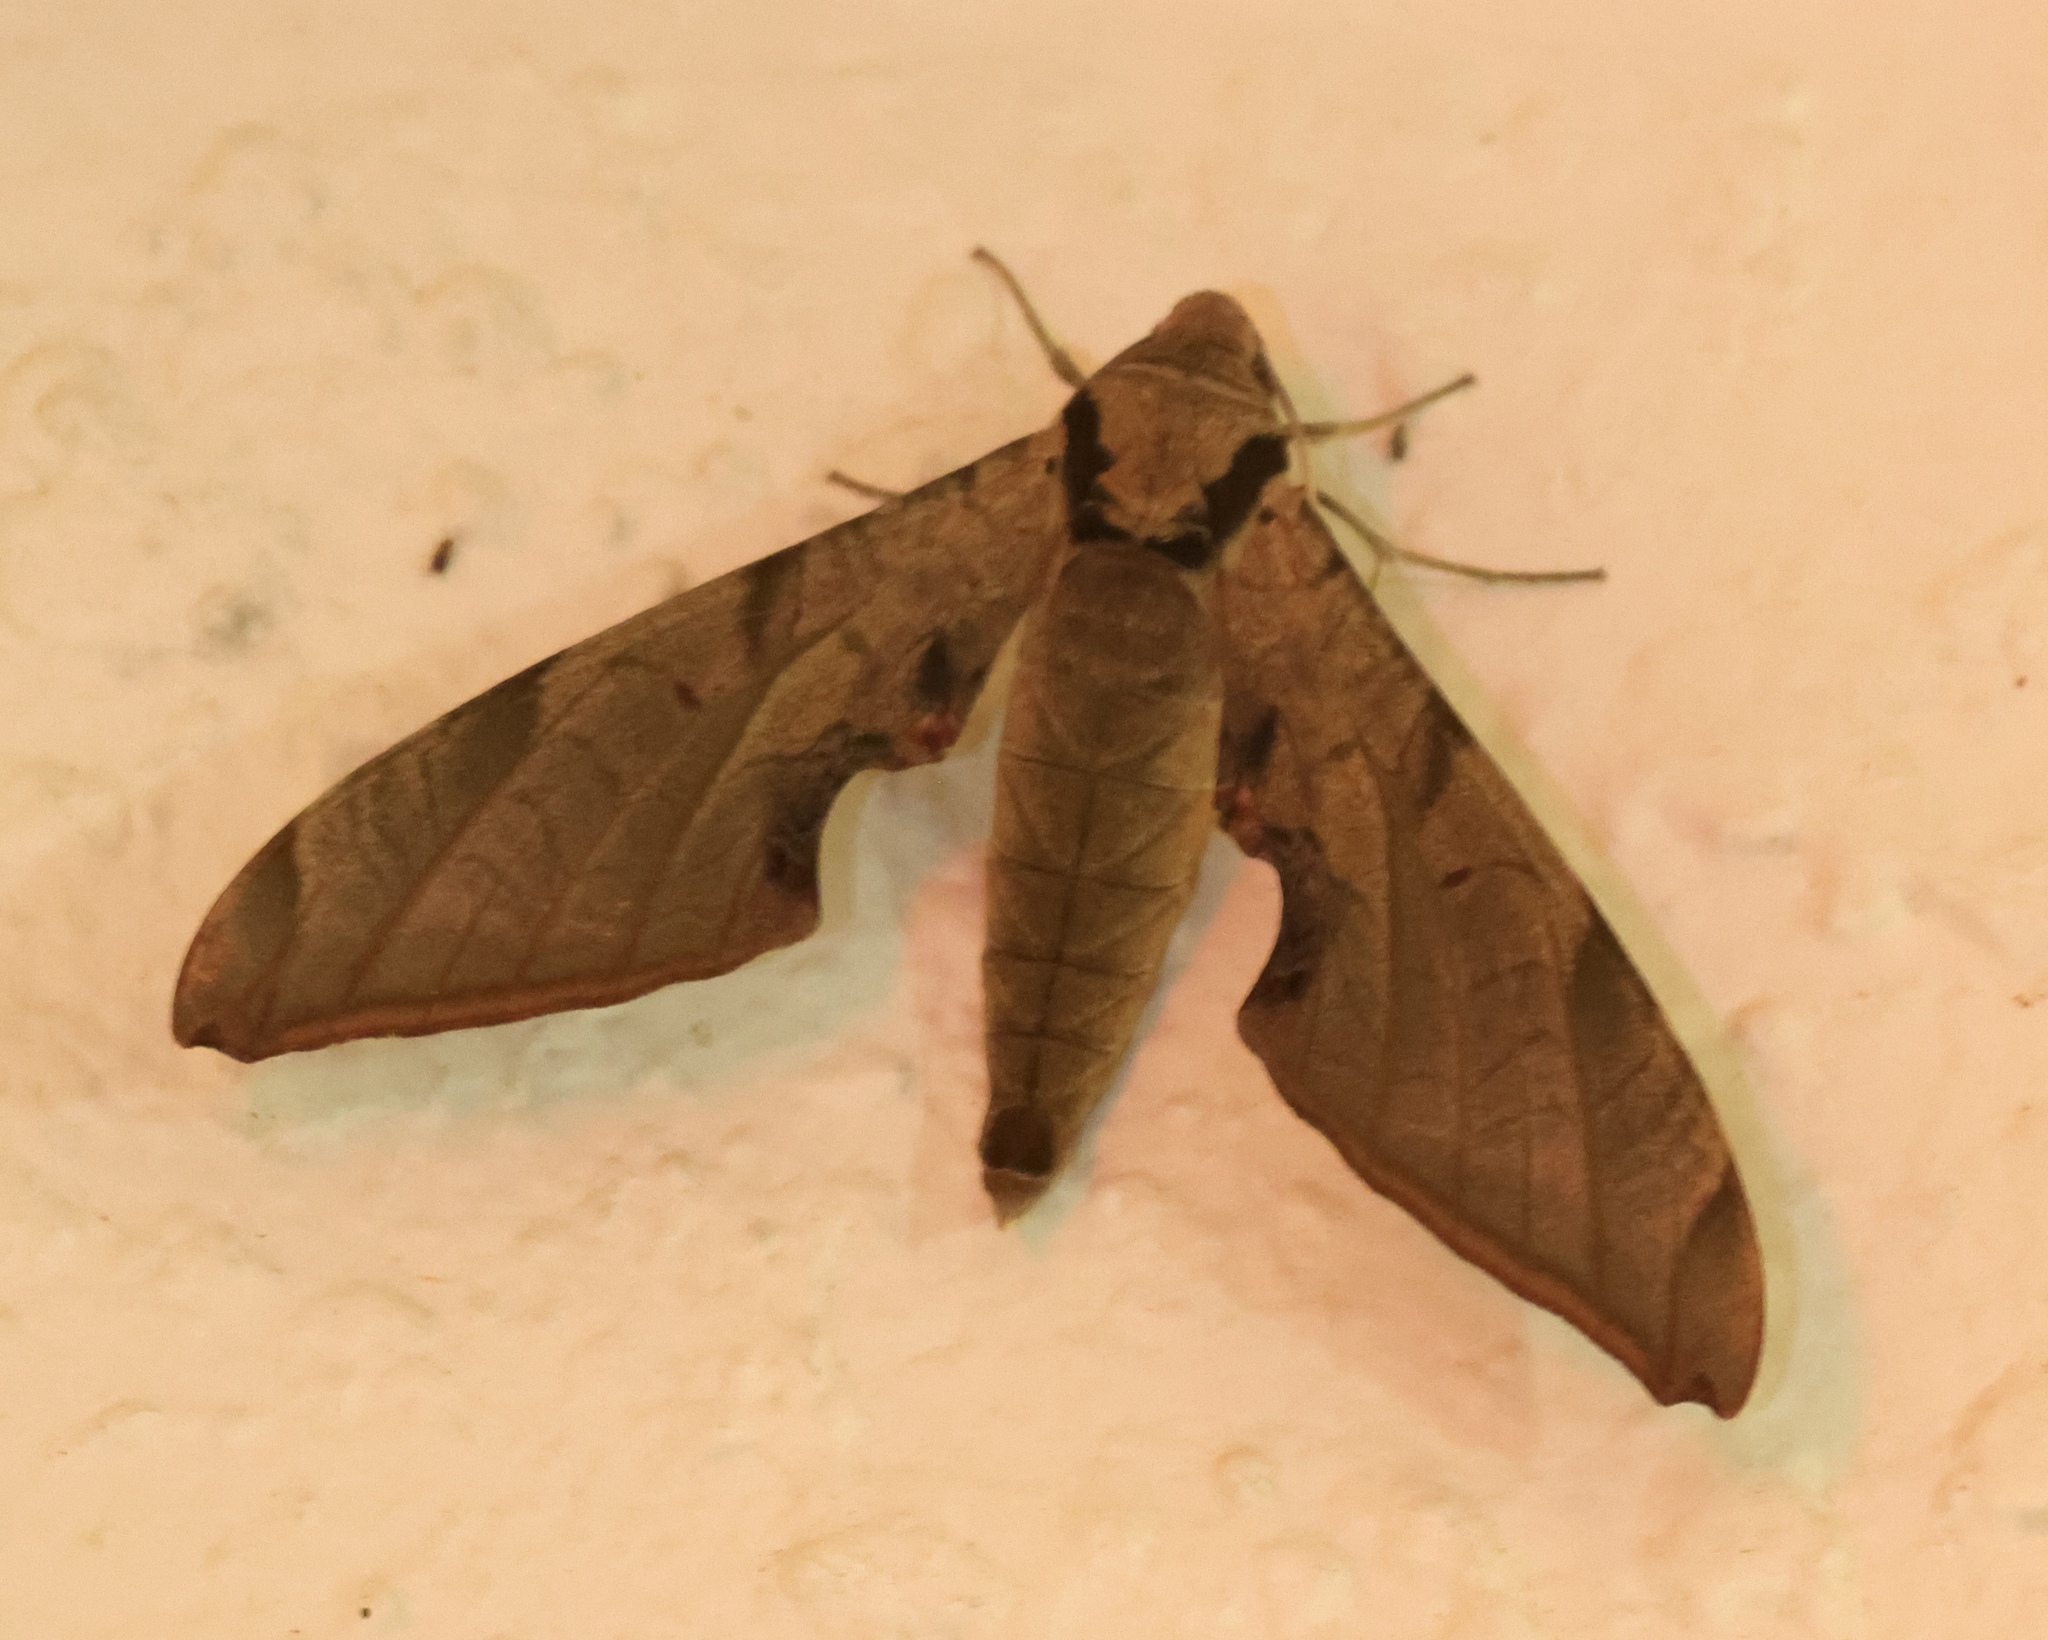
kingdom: Animalia
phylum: Arthropoda
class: Insecta
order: Lepidoptera
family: Sphingidae
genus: Protambulyx
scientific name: Protambulyx strigilis
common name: Streaked sphinx
